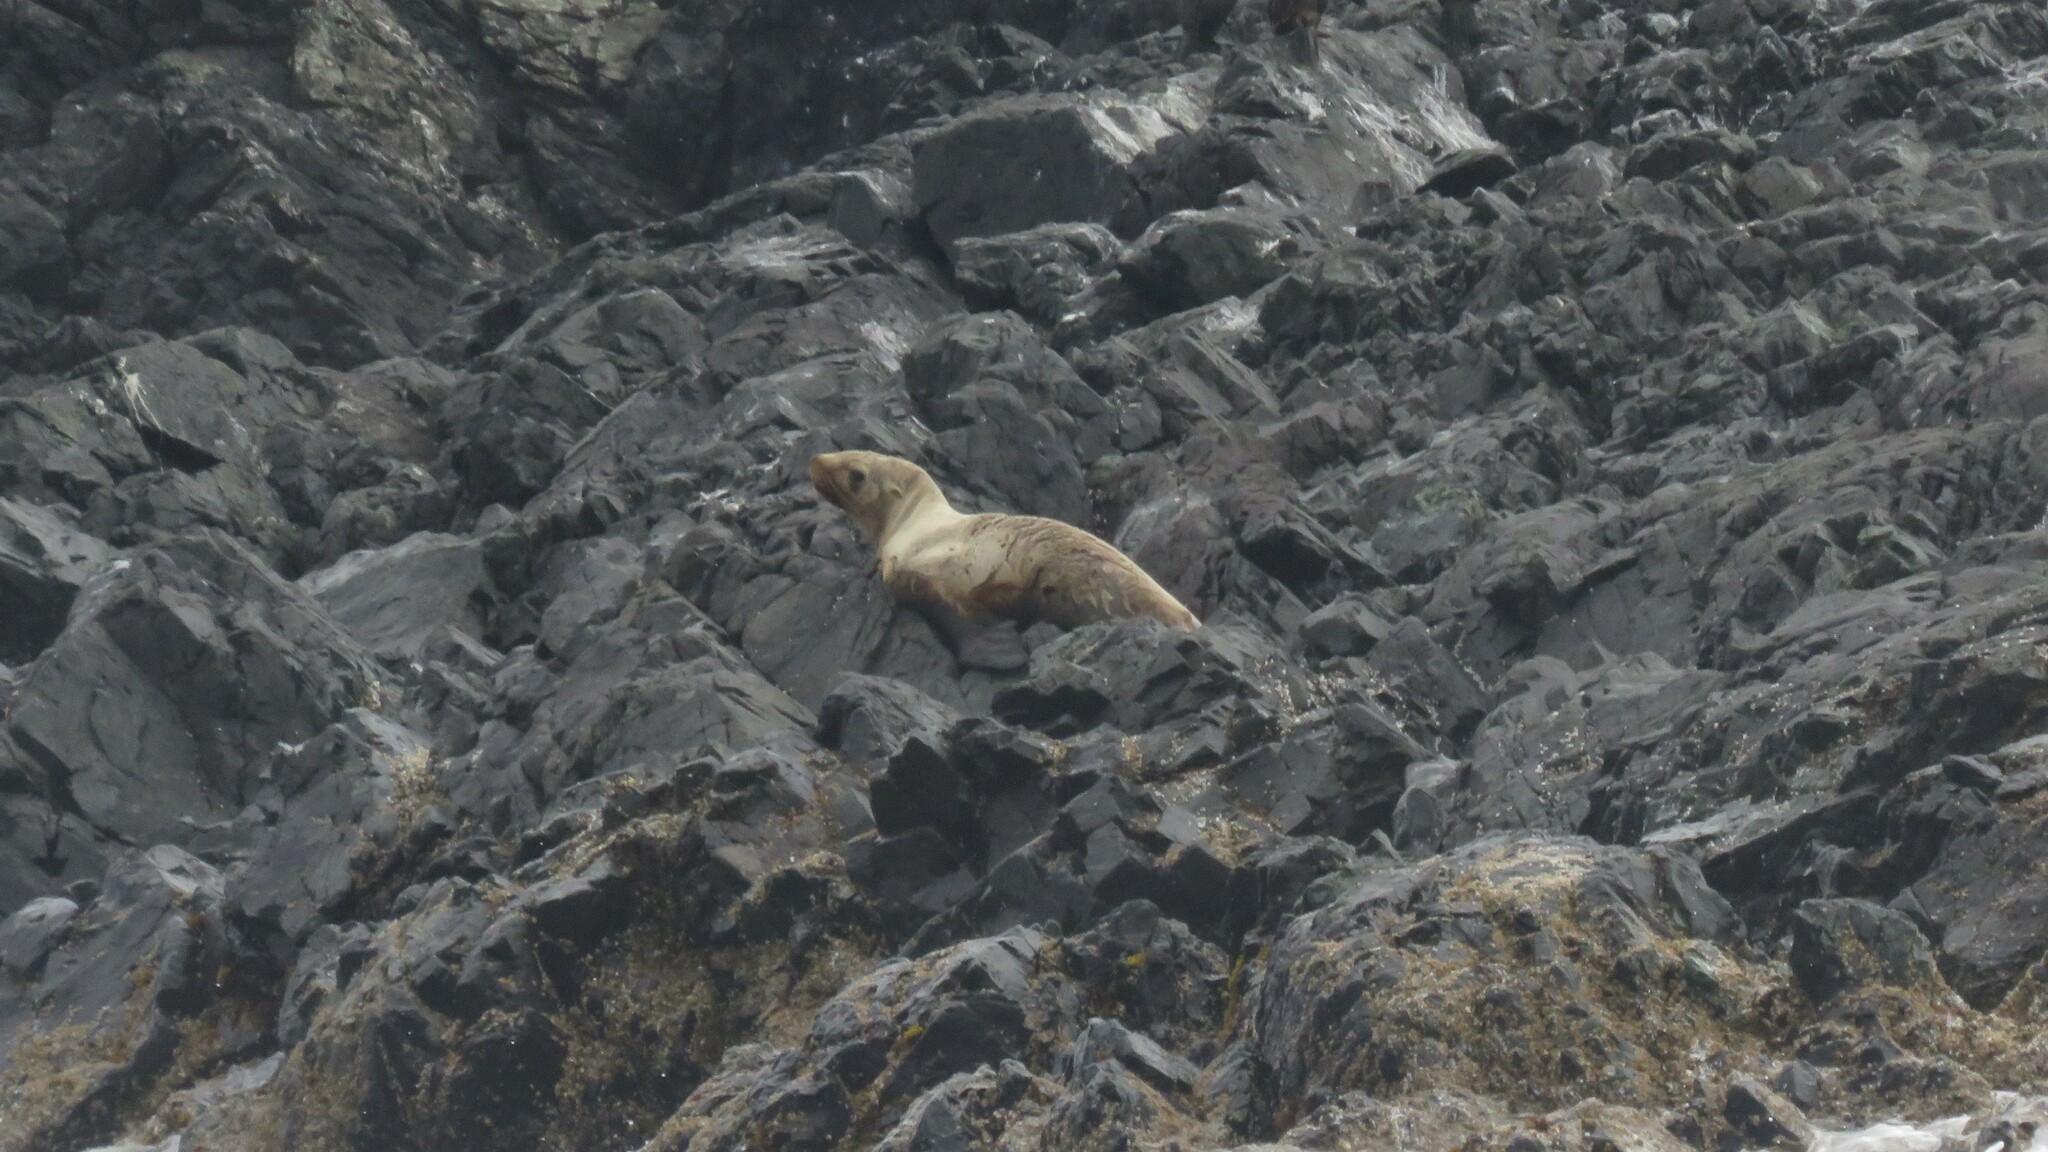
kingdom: Animalia
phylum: Chordata
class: Mammalia
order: Carnivora
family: Otariidae
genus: Eumetopias
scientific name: Eumetopias jubatus
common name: Steller sea lion
